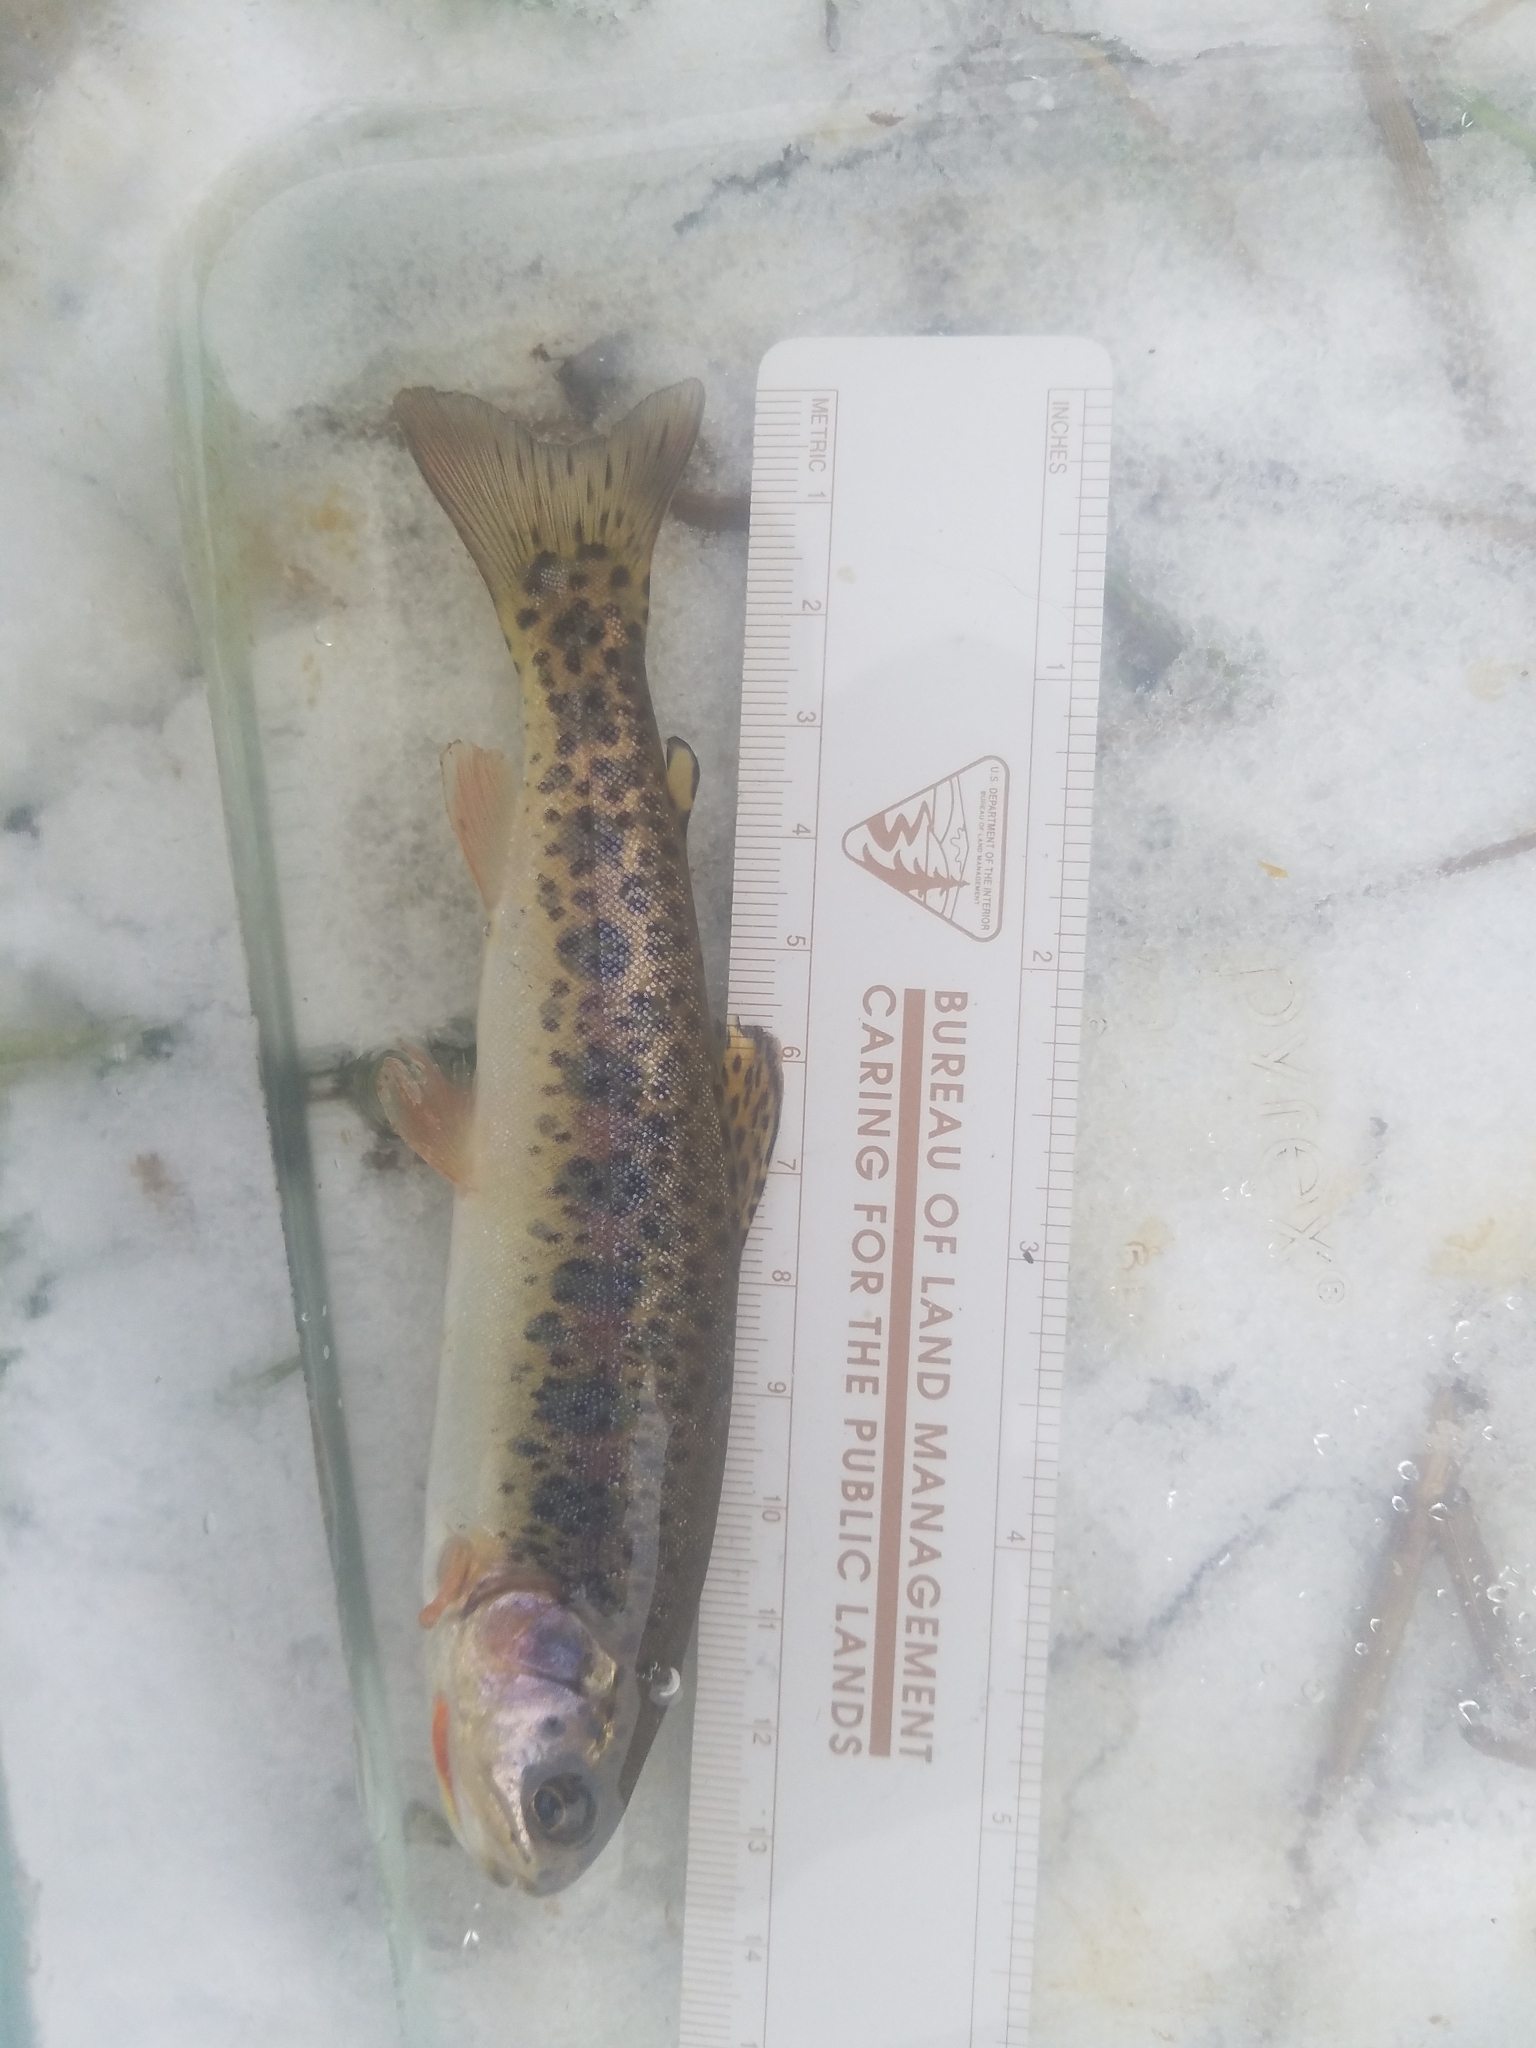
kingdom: Animalia
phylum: Chordata
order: Salmoniformes
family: Salmonidae
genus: Oncorhynchus
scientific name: Oncorhynchus clarkii
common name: Cutthroat trout
